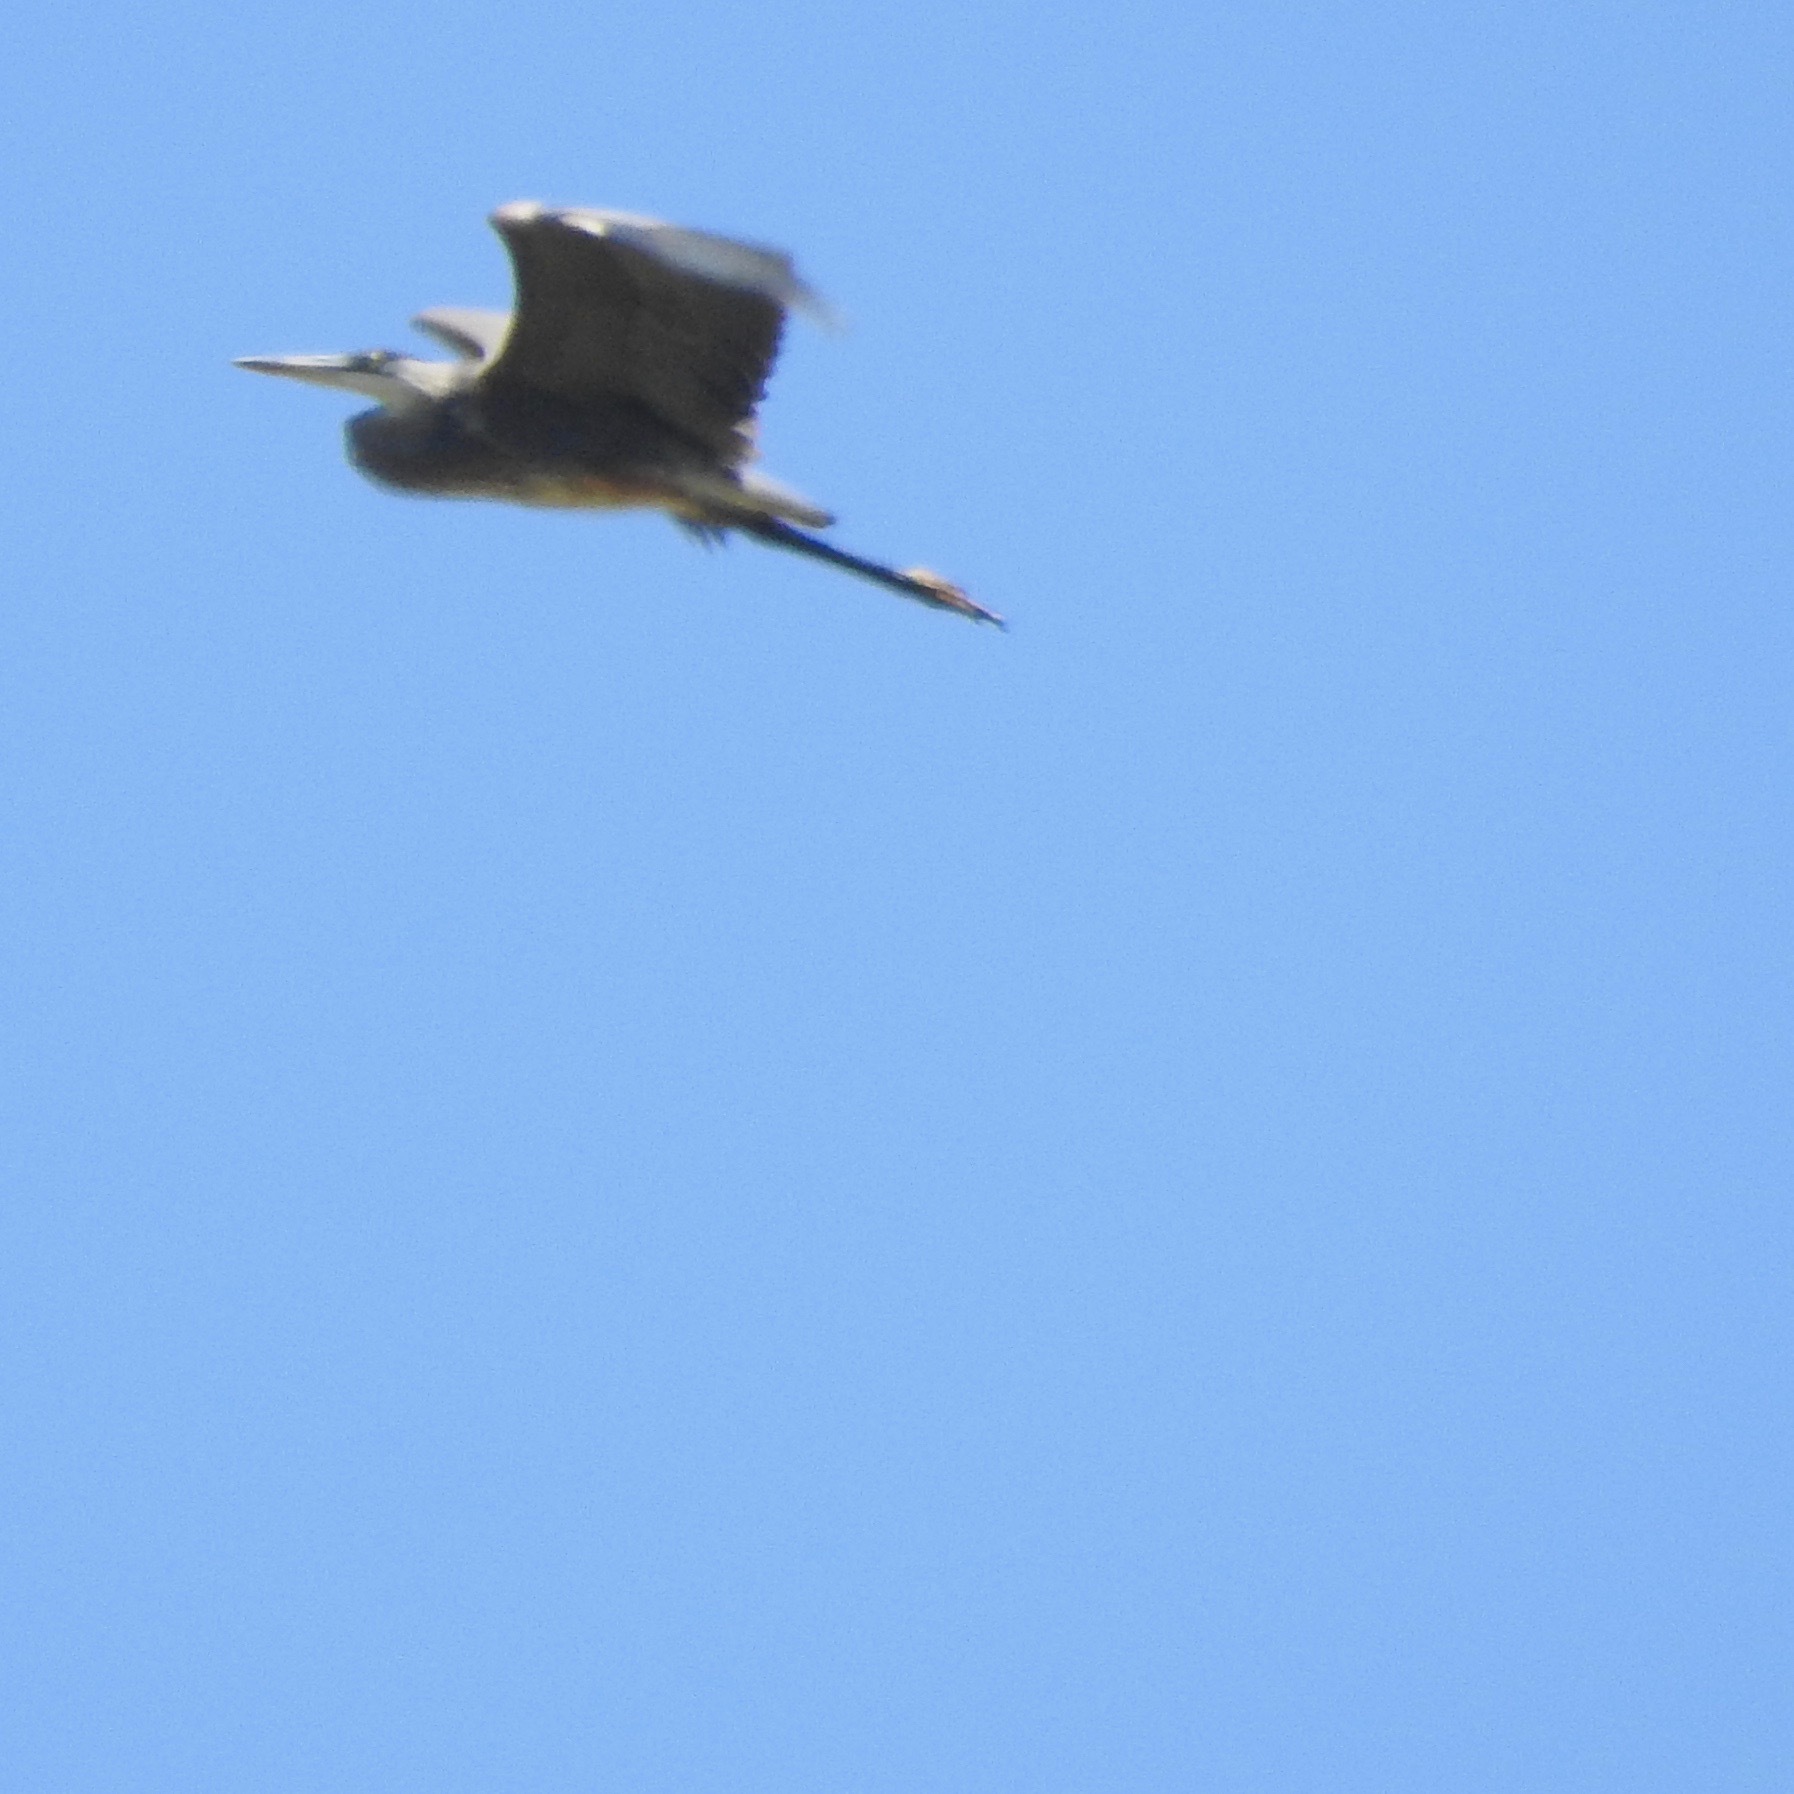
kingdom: Animalia
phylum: Chordata
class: Aves
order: Pelecaniformes
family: Ardeidae
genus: Ardea
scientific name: Ardea herodias
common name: Great blue heron
